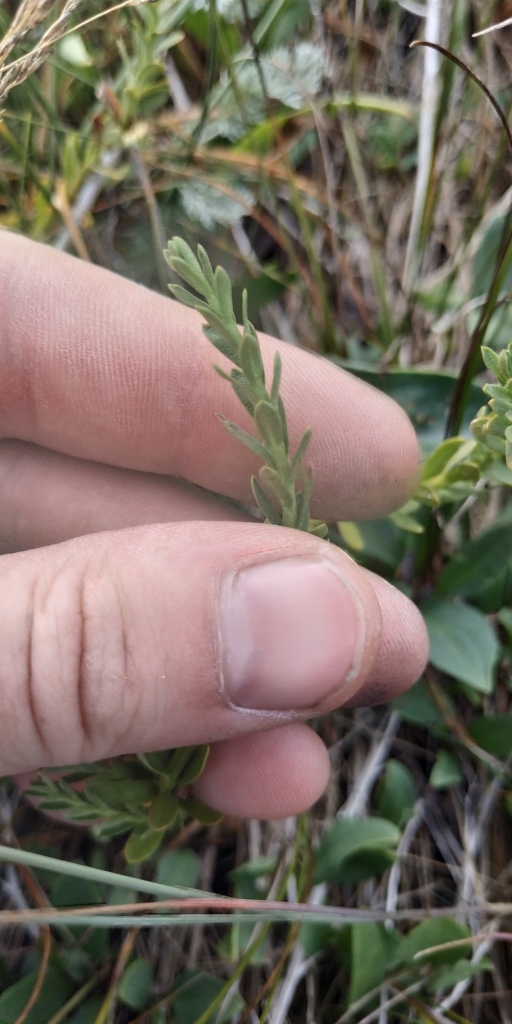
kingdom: Plantae
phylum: Tracheophyta
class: Magnoliopsida
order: Ericales
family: Primulaceae
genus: Lysimachia
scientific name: Lysimachia maritima
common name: Sea milkwort
